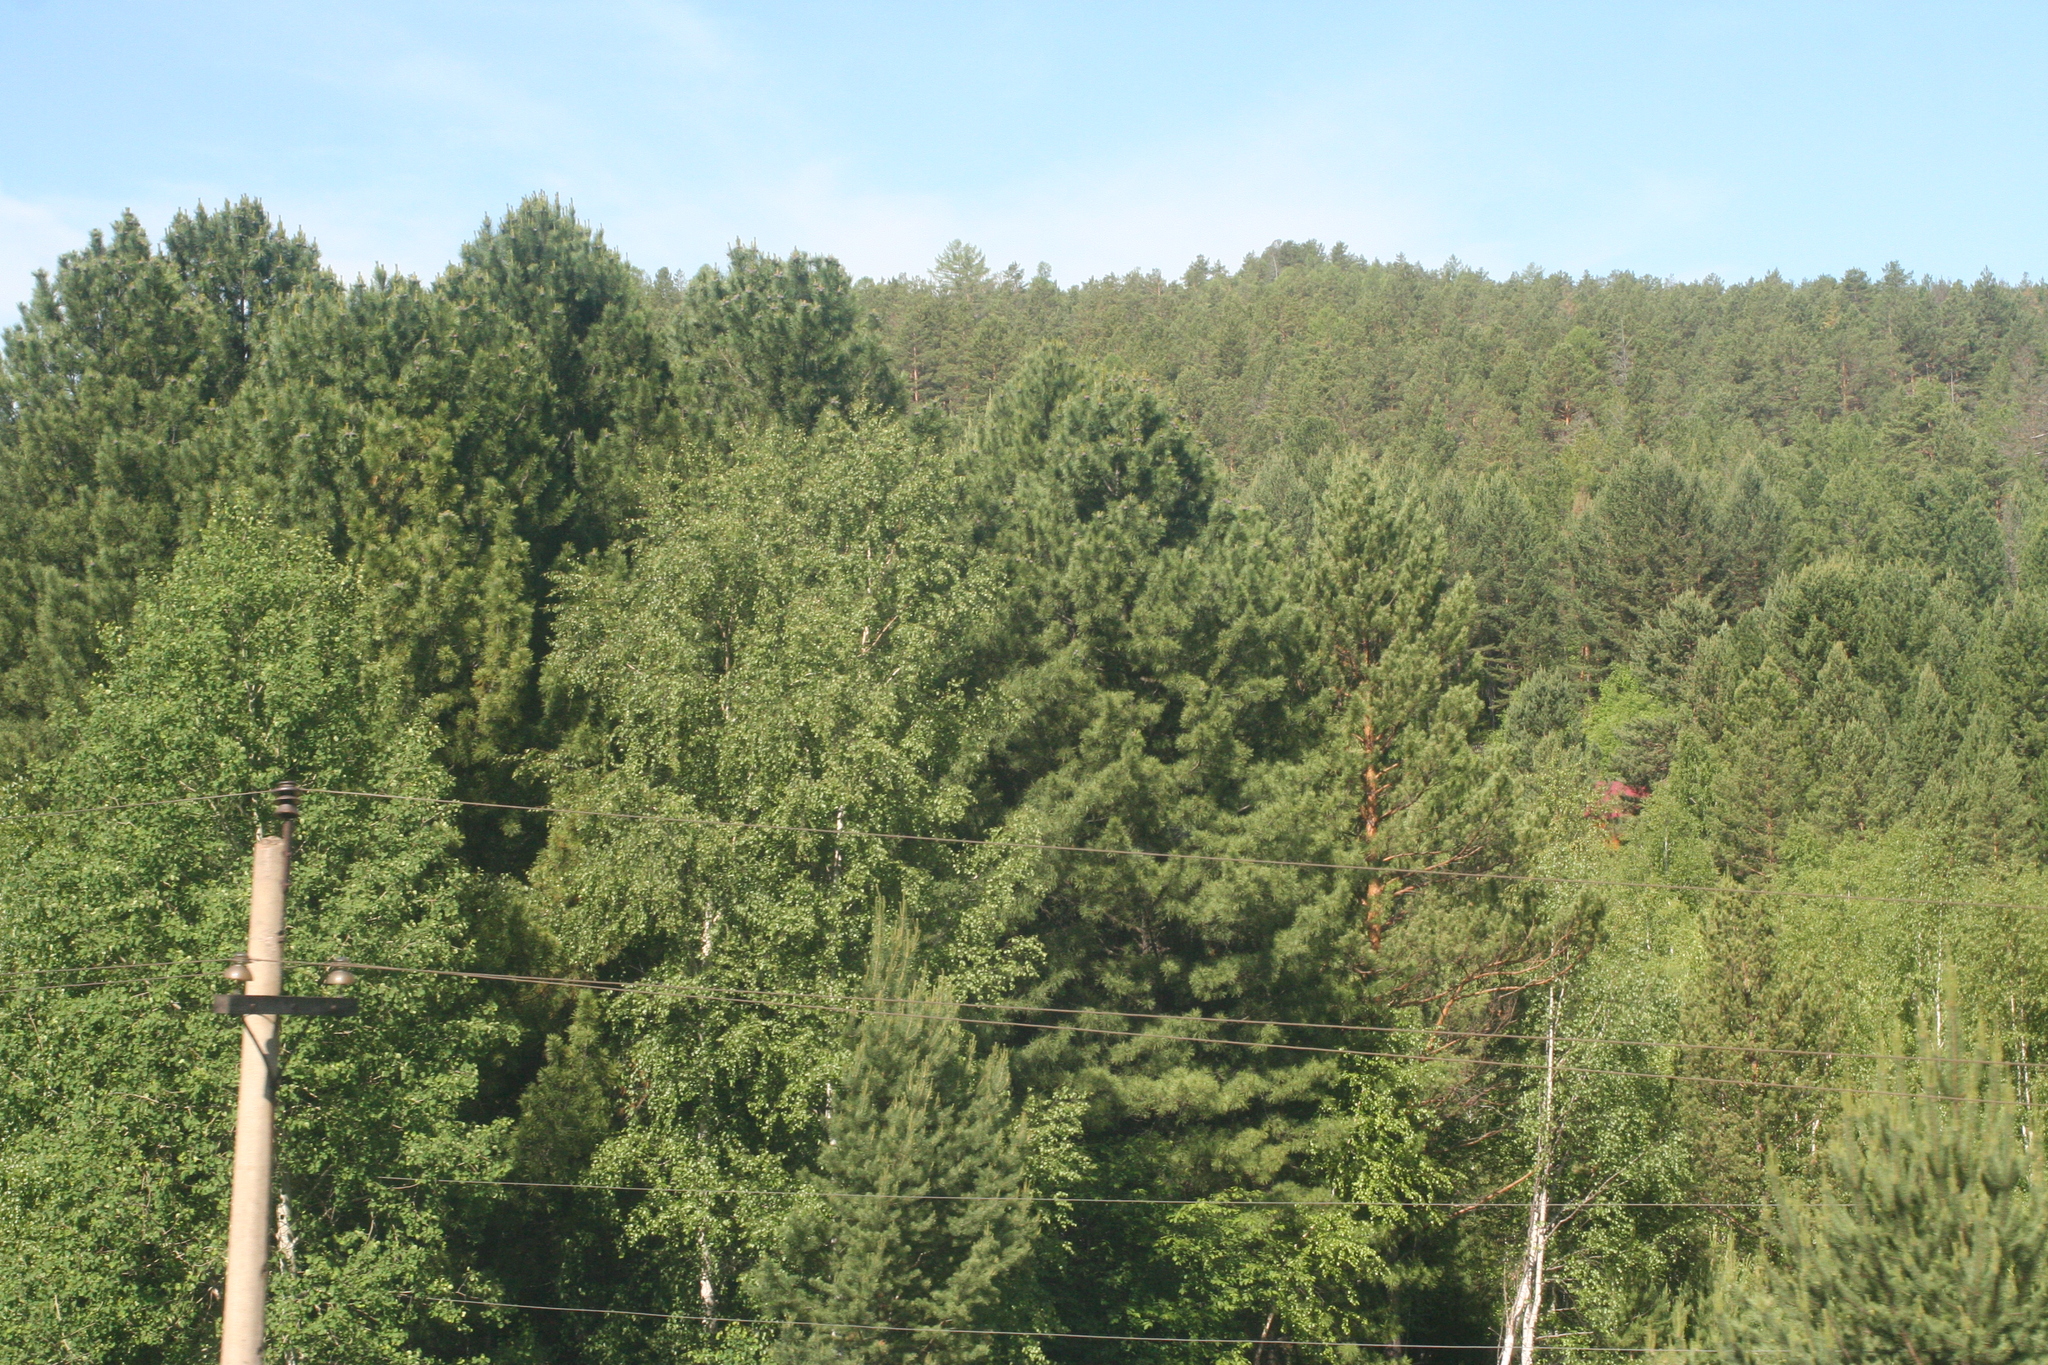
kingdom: Plantae
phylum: Tracheophyta
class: Pinopsida
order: Pinales
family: Pinaceae
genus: Pinus
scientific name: Pinus sibirica
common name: Siberian pine
